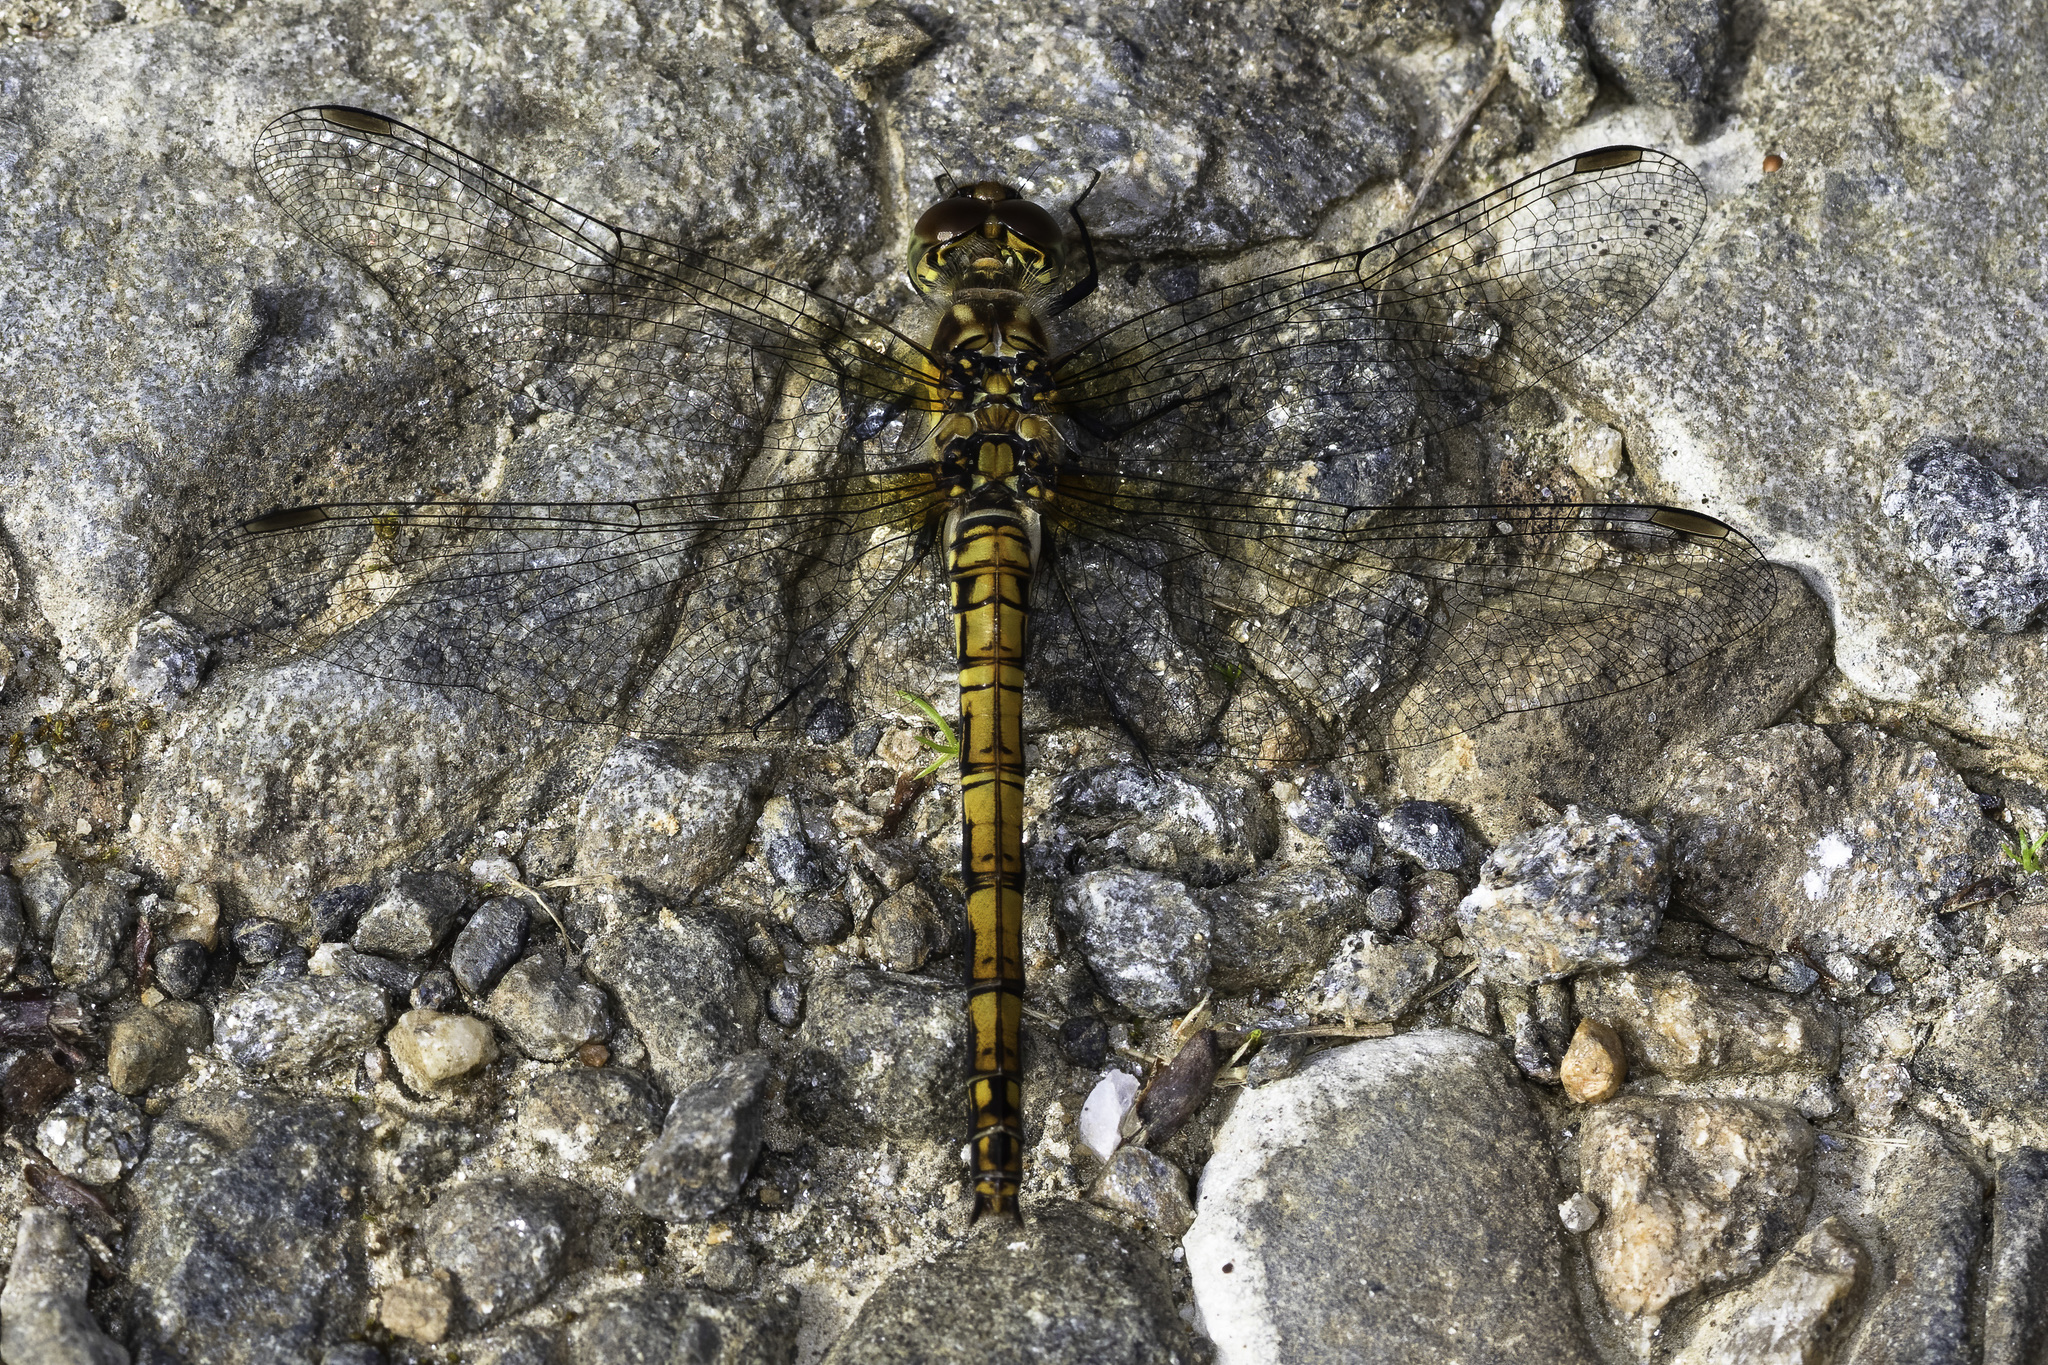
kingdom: Animalia
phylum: Arthropoda
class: Insecta
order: Odonata
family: Libellulidae
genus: Sympetrum
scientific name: Sympetrum danae
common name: Black darter
